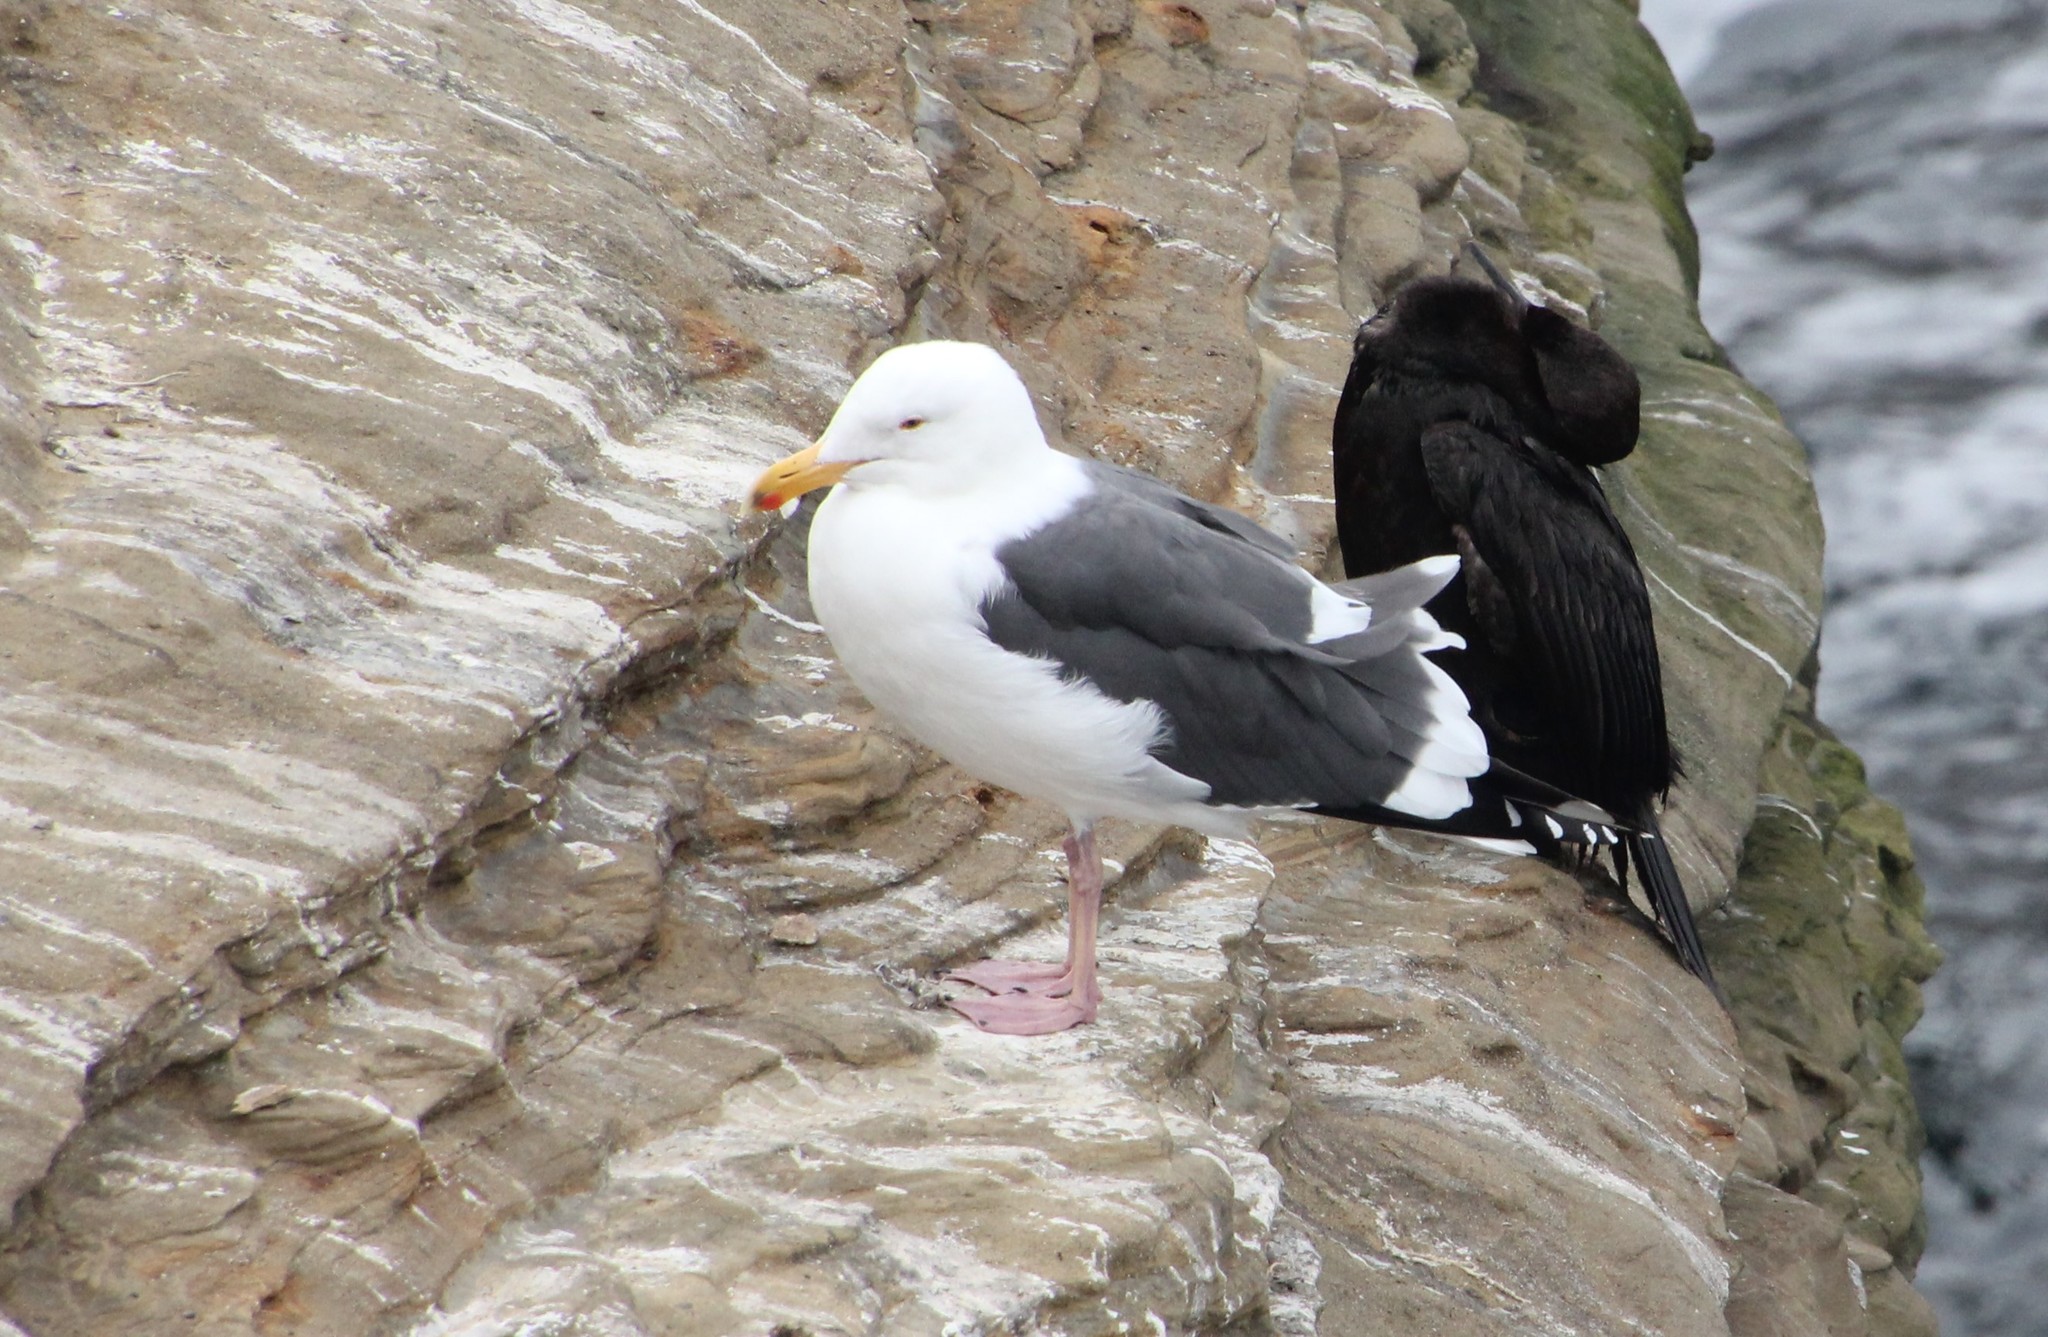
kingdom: Animalia
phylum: Chordata
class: Aves
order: Charadriiformes
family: Laridae
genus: Larus
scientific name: Larus occidentalis
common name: Western gull
